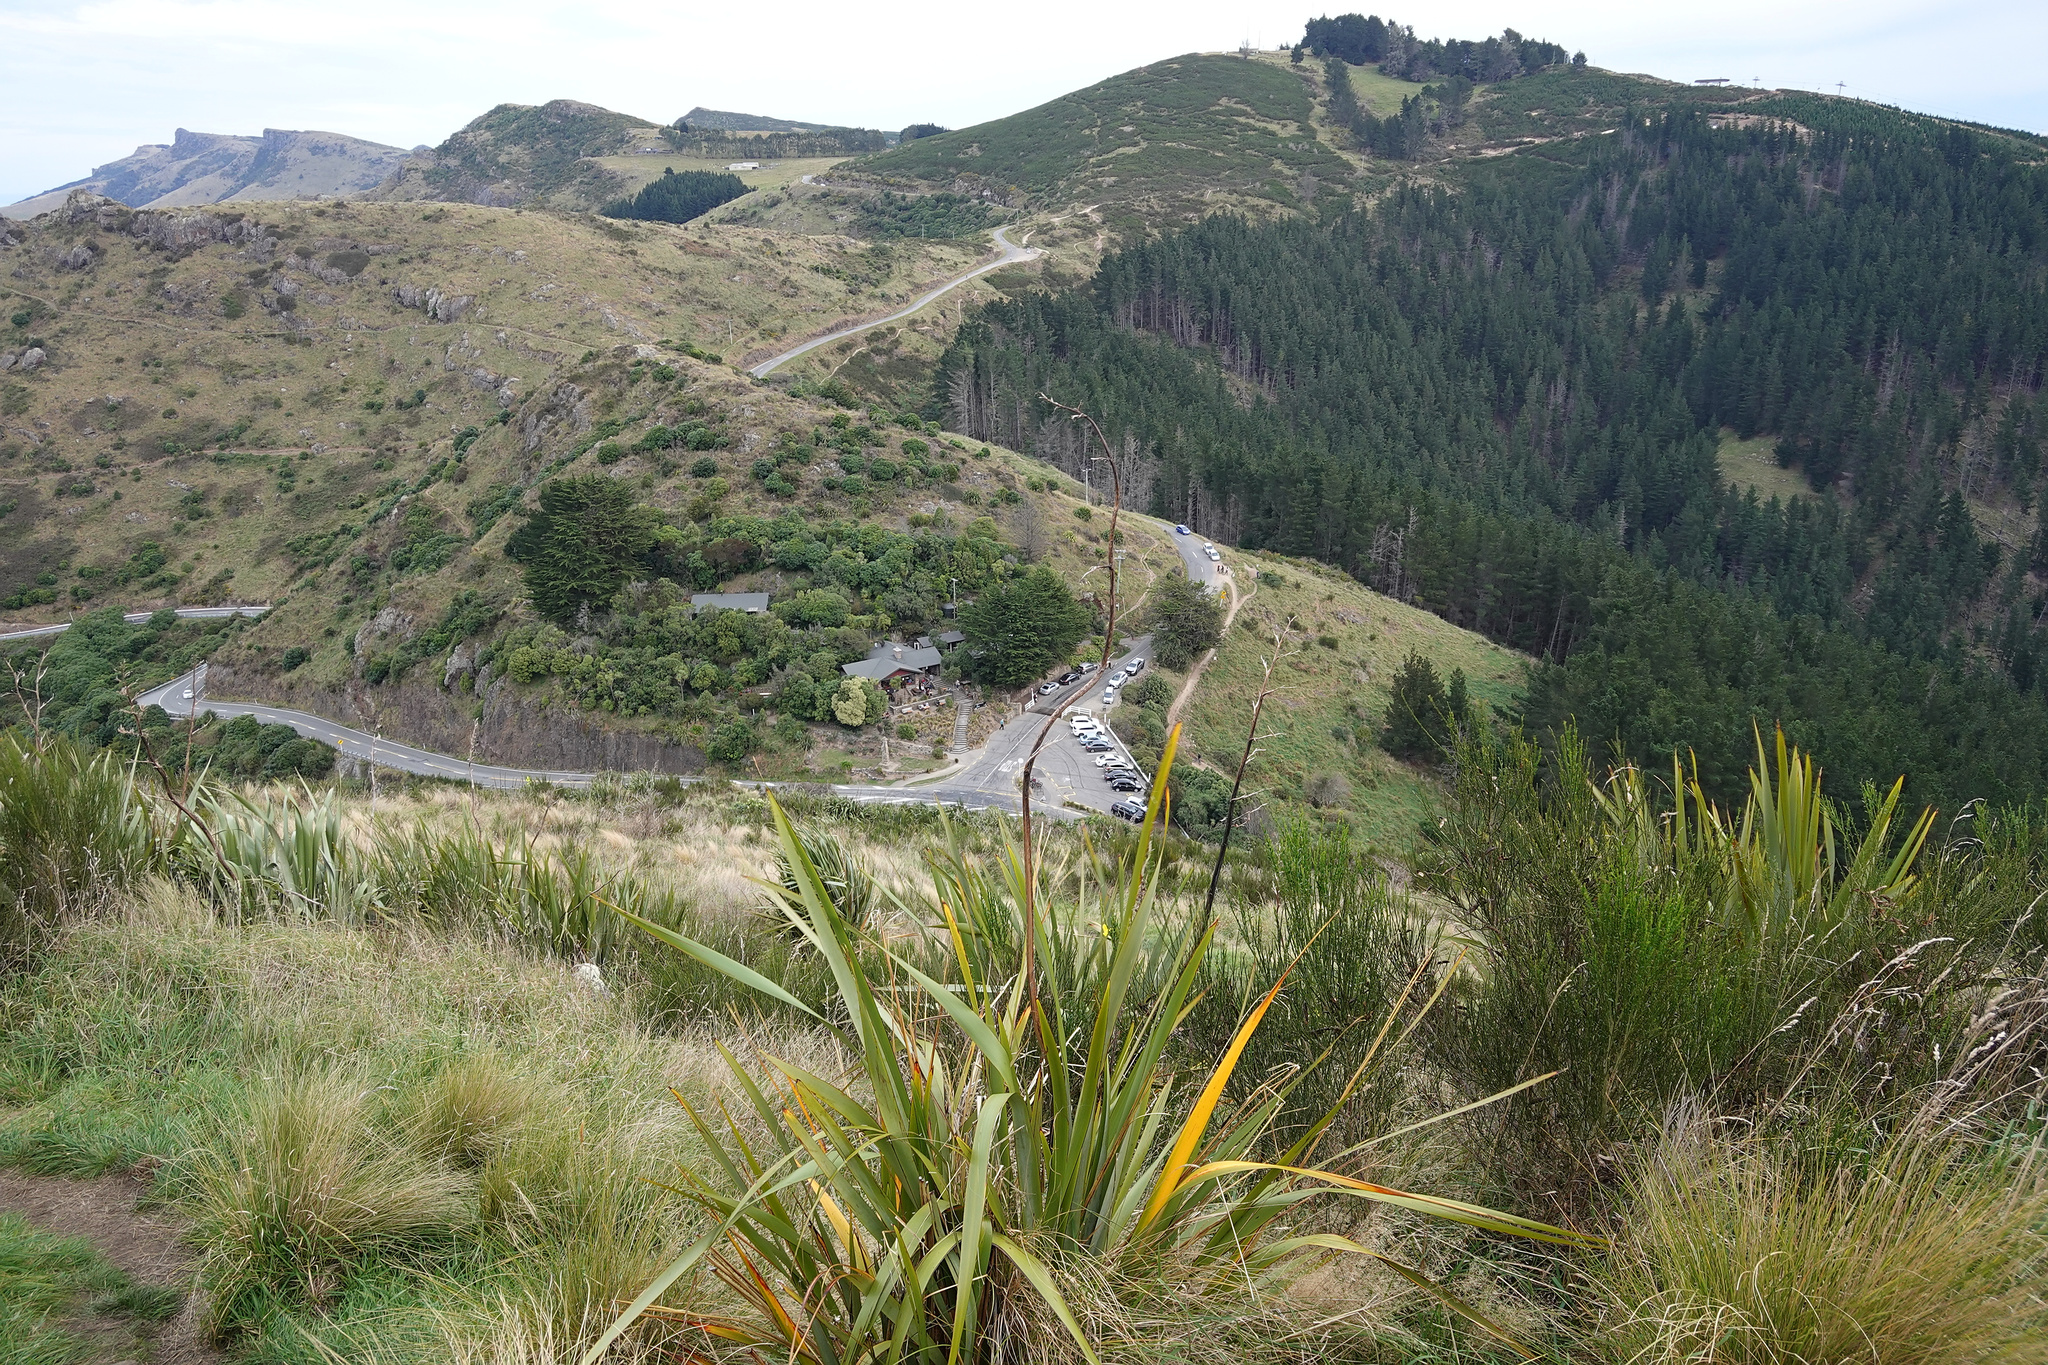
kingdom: Plantae
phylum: Tracheophyta
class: Liliopsida
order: Asparagales
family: Asphodelaceae
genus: Phormium
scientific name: Phormium tenax
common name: New zealand flax
